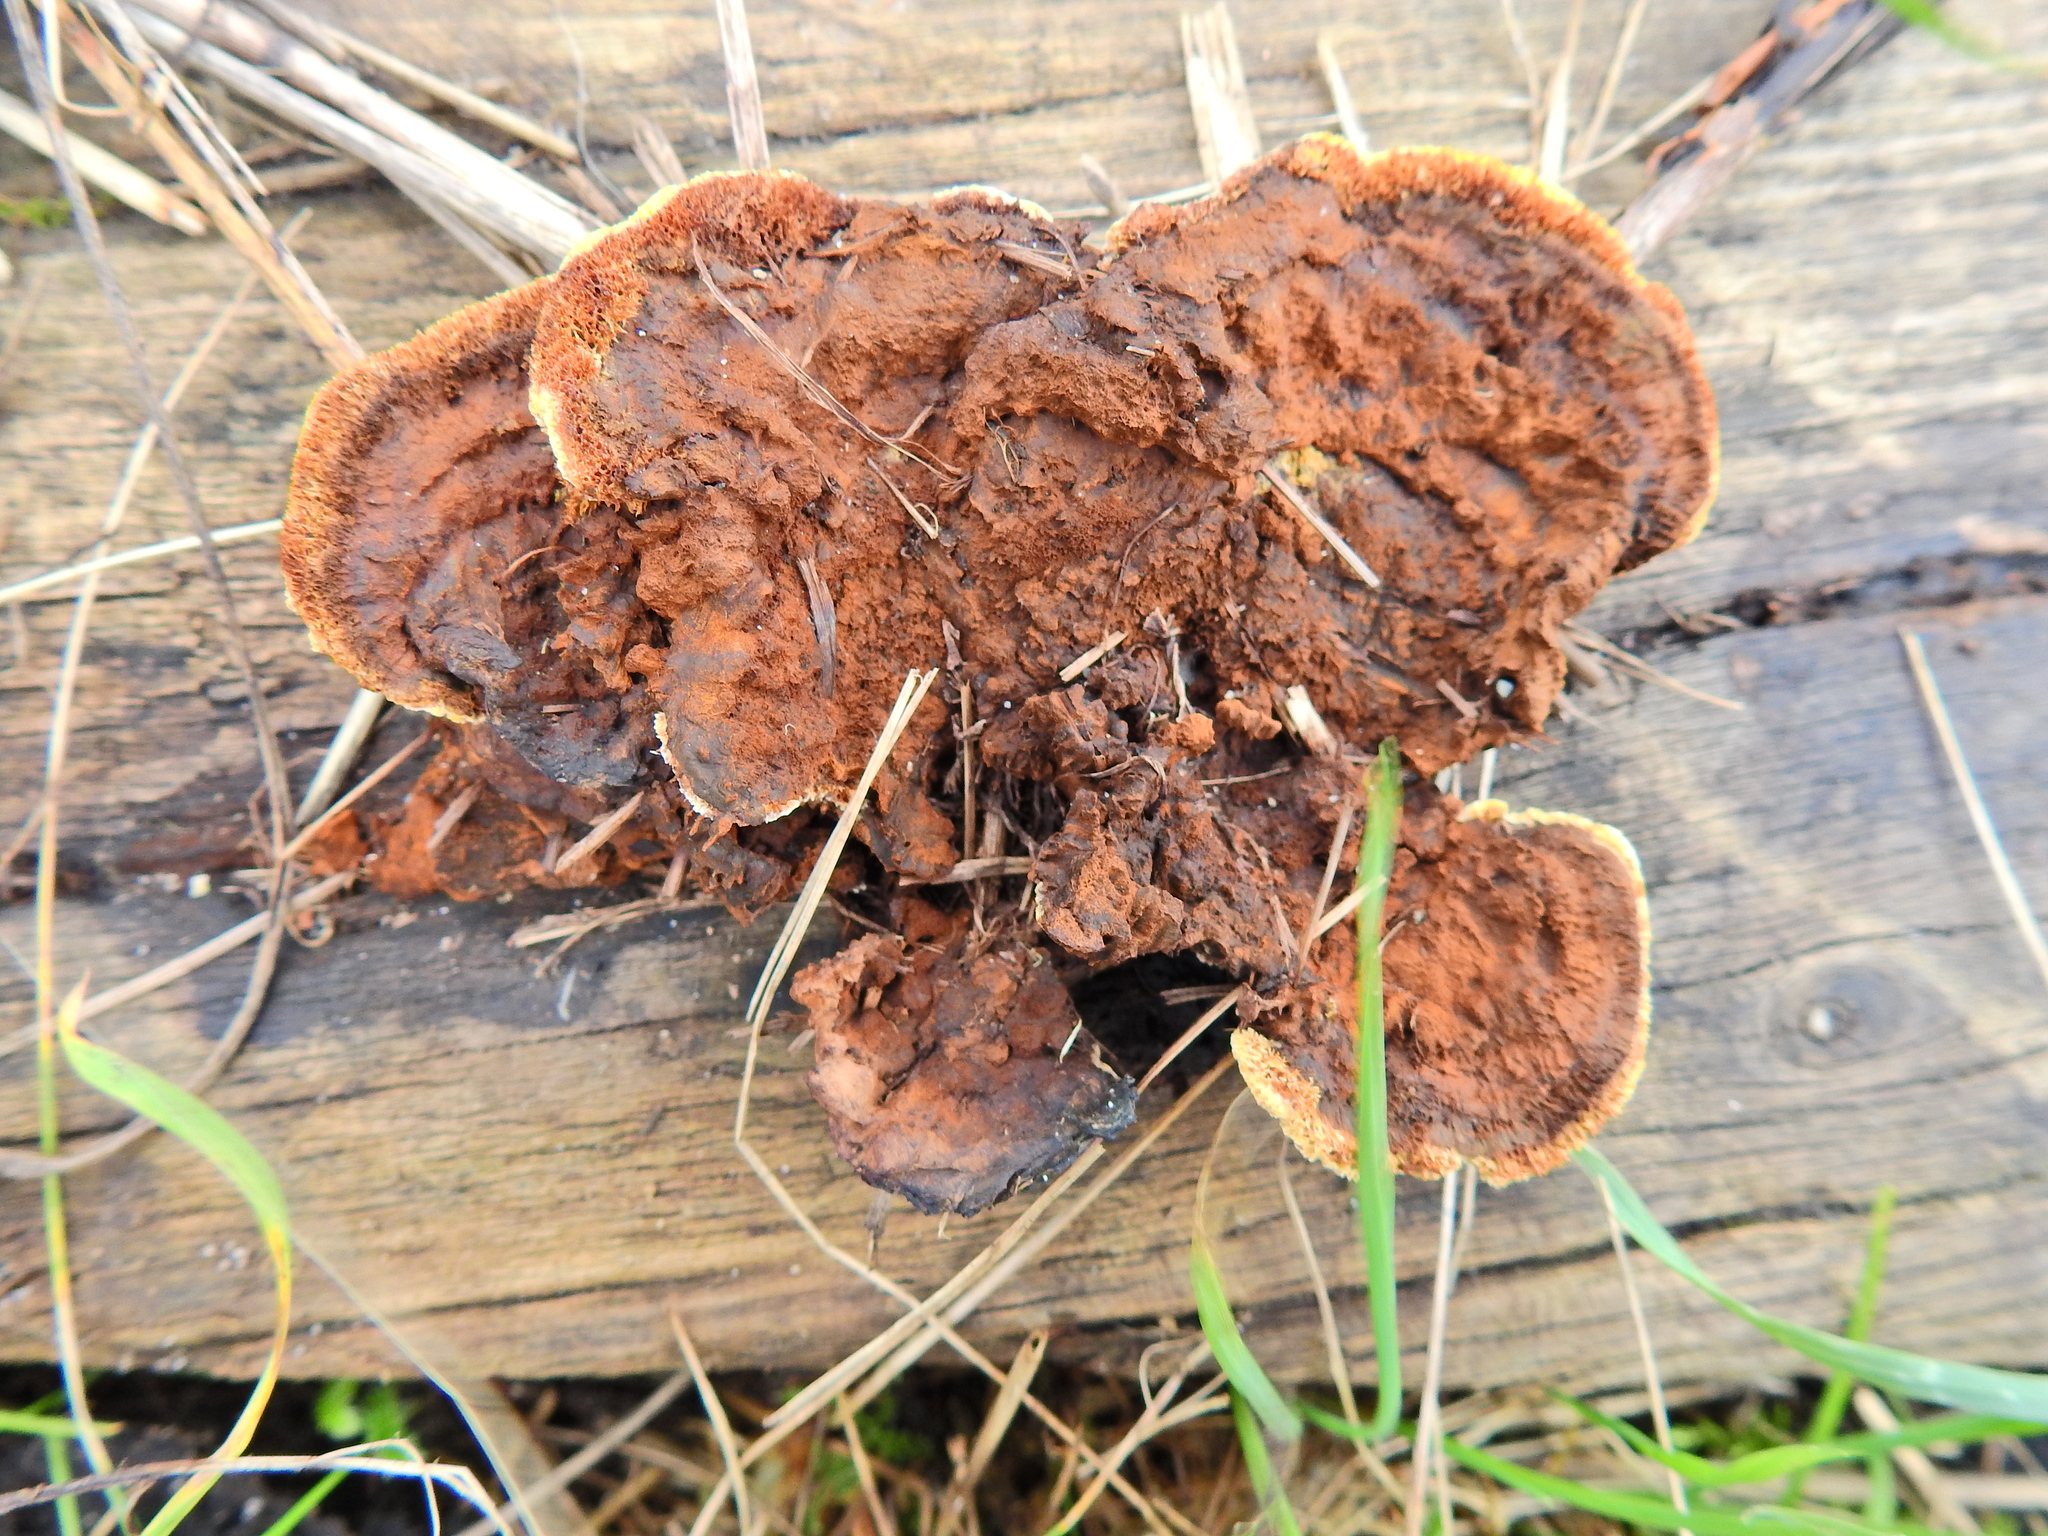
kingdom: Fungi
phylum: Basidiomycota
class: Agaricomycetes
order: Gloeophyllales
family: Gloeophyllaceae
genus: Gloeophyllum
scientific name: Gloeophyllum sepiarium
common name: Conifer mazegill
